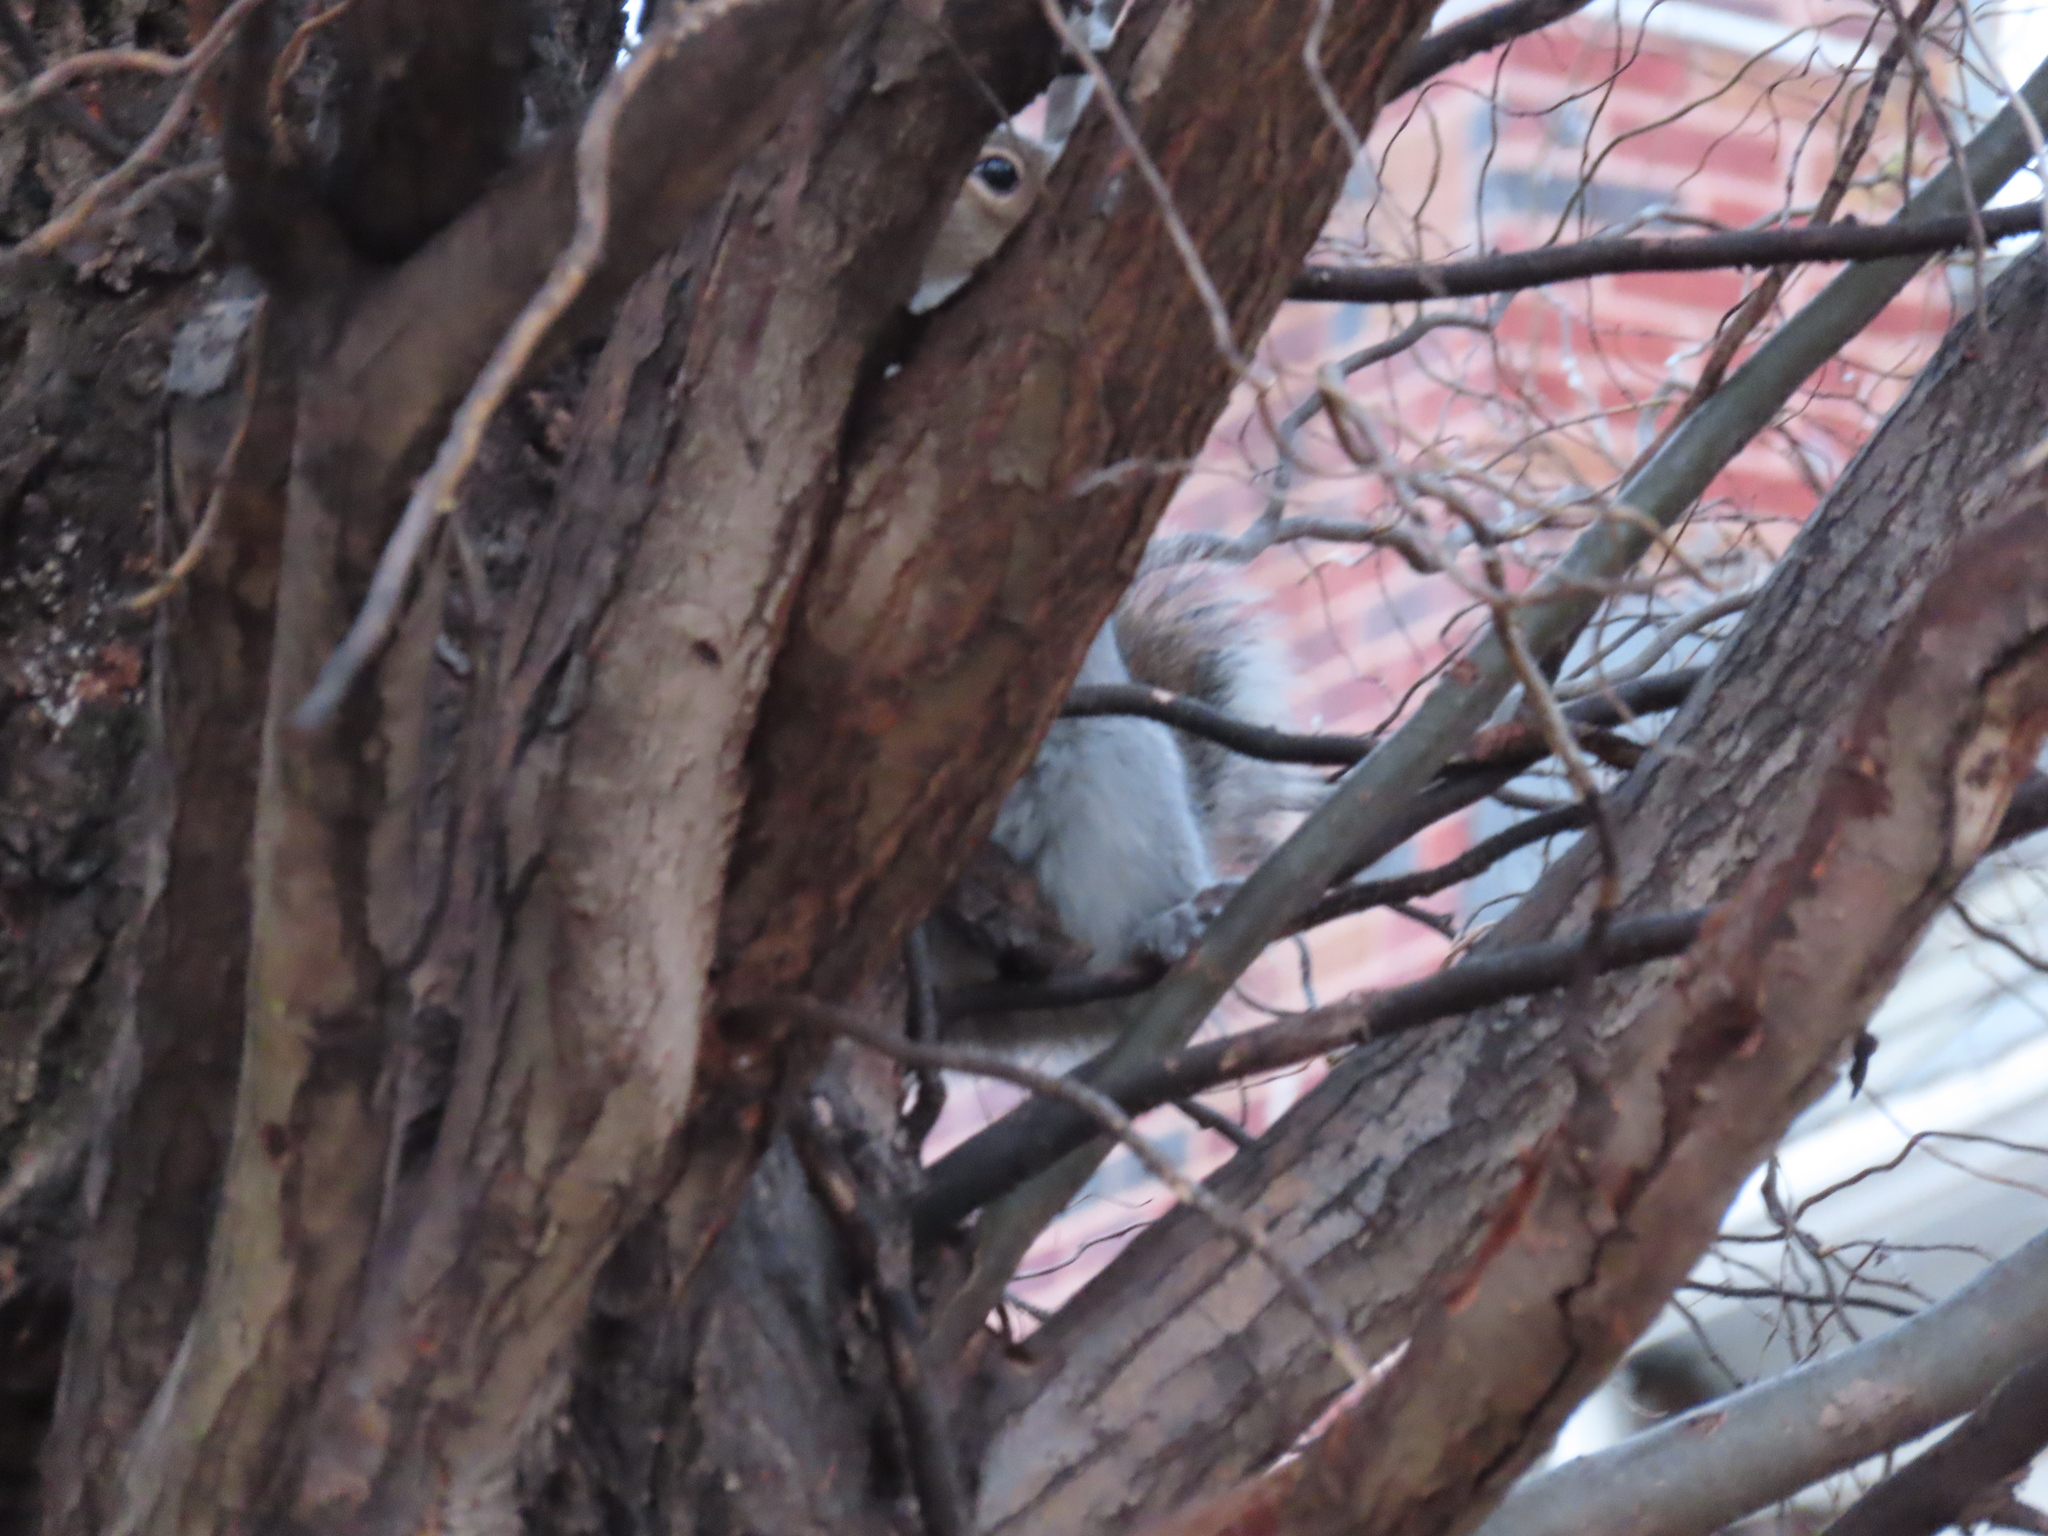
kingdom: Animalia
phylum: Chordata
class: Mammalia
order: Rodentia
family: Sciuridae
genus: Sciurus
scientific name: Sciurus carolinensis
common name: Eastern gray squirrel
